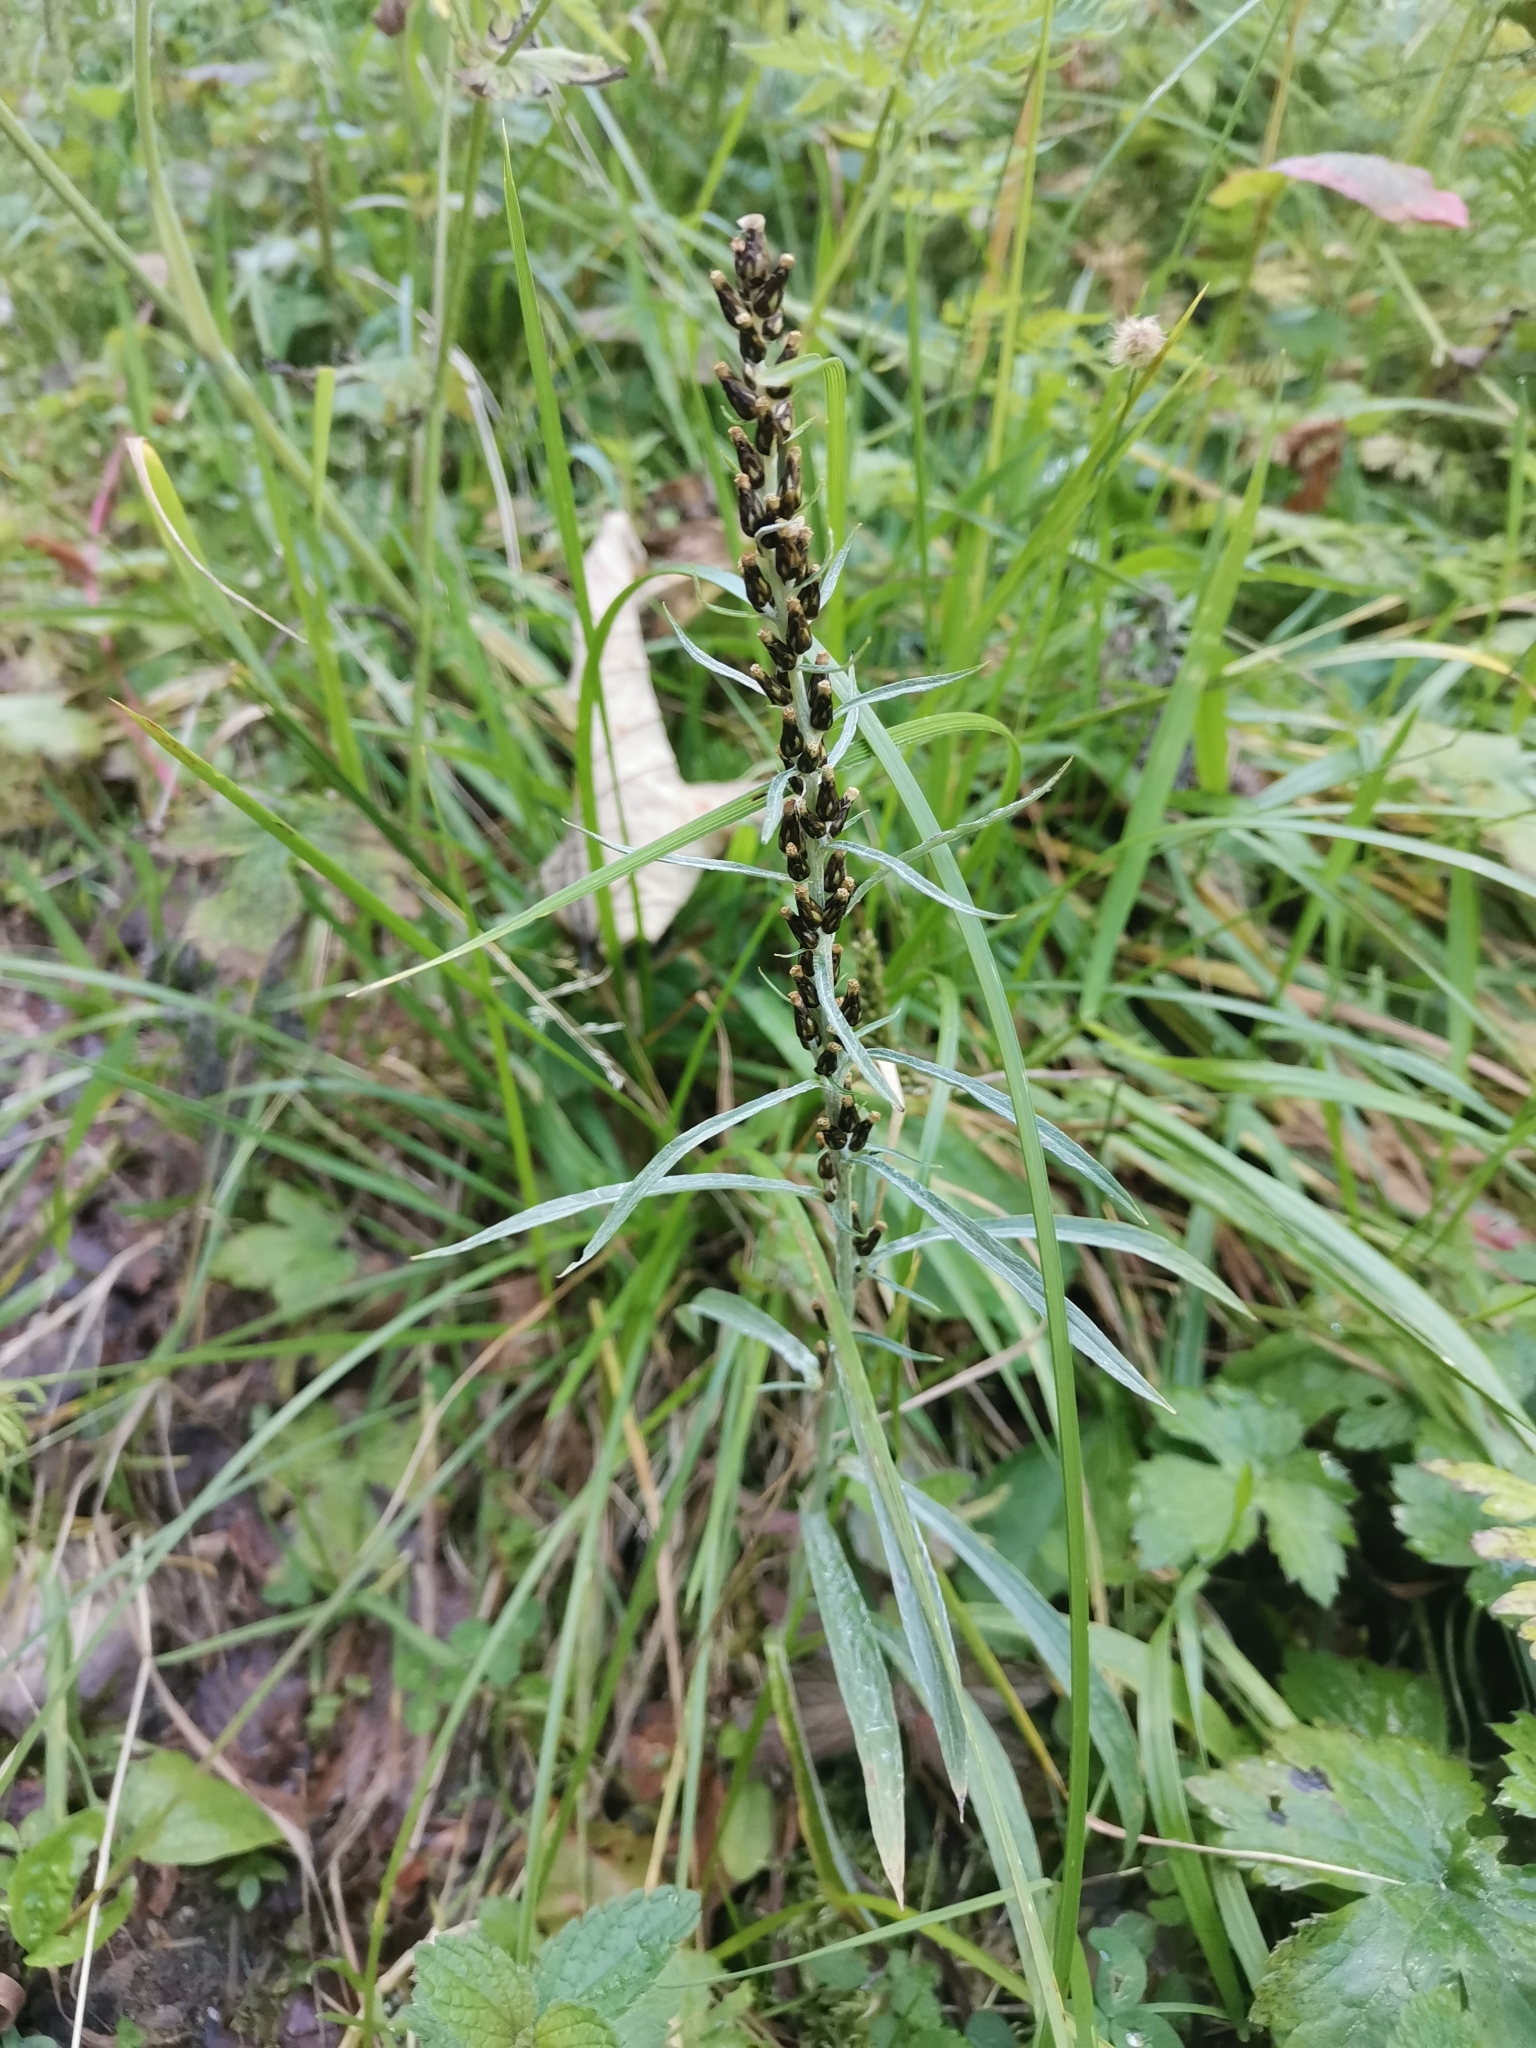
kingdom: Plantae
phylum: Tracheophyta
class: Magnoliopsida
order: Asterales
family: Asteraceae
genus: Omalotheca
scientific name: Omalotheca norvegica
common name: Norwegian arctic-cudweed
